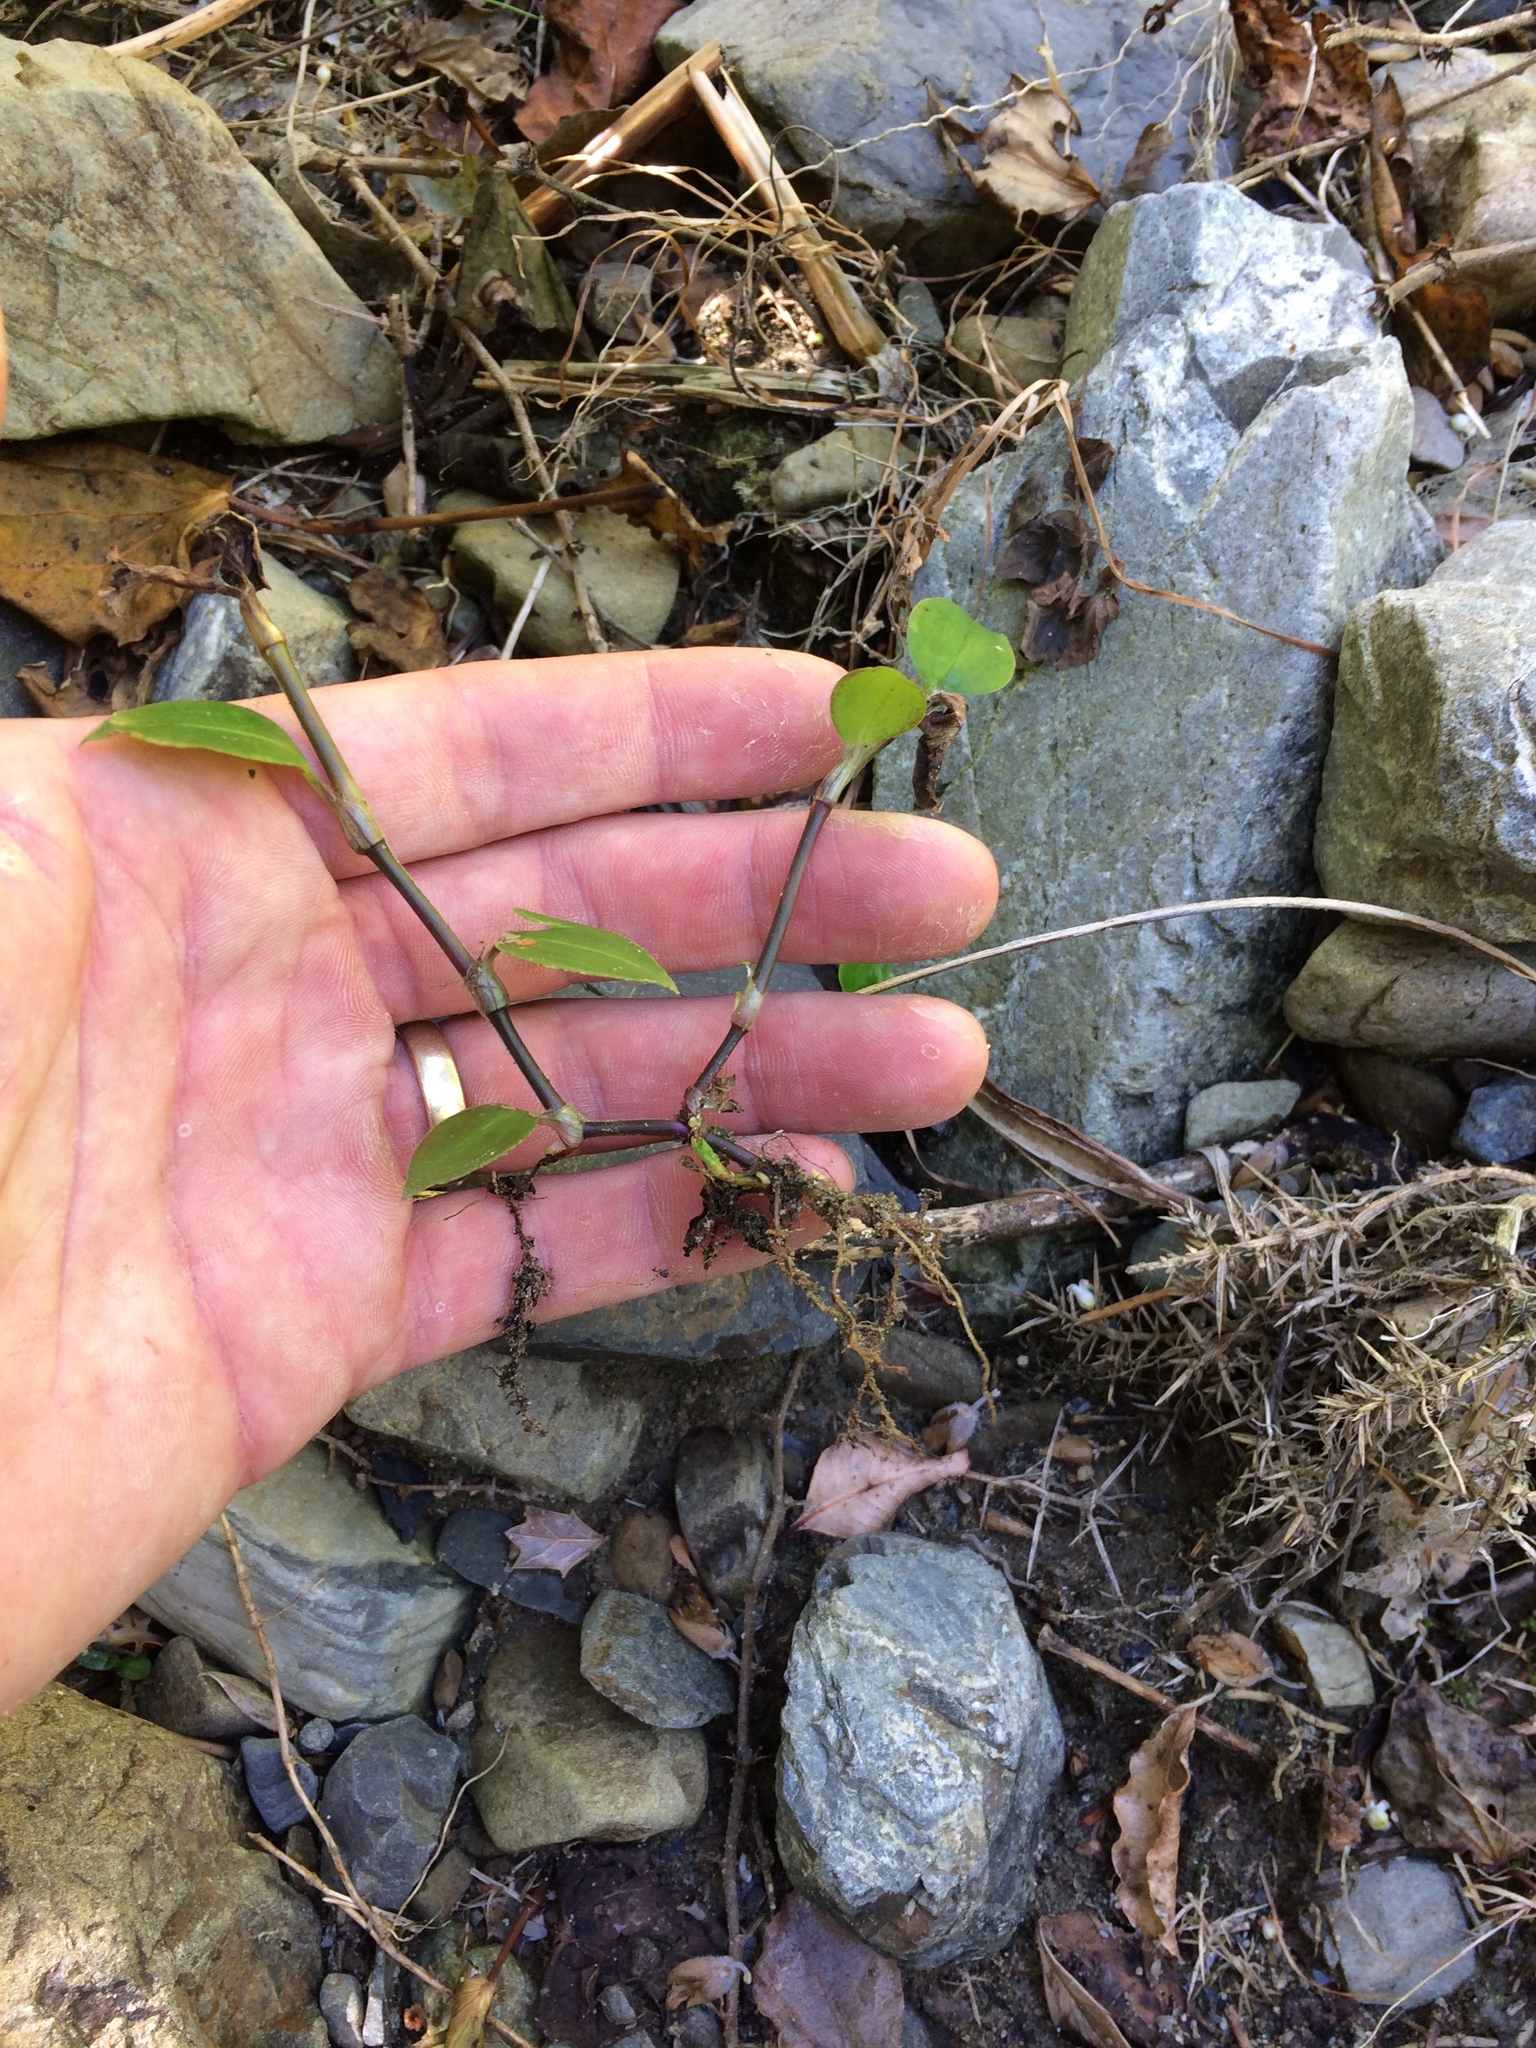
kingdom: Plantae
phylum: Tracheophyta
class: Liliopsida
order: Commelinales
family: Commelinaceae
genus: Tradescantia
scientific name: Tradescantia fluminensis
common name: Wandering-jew
